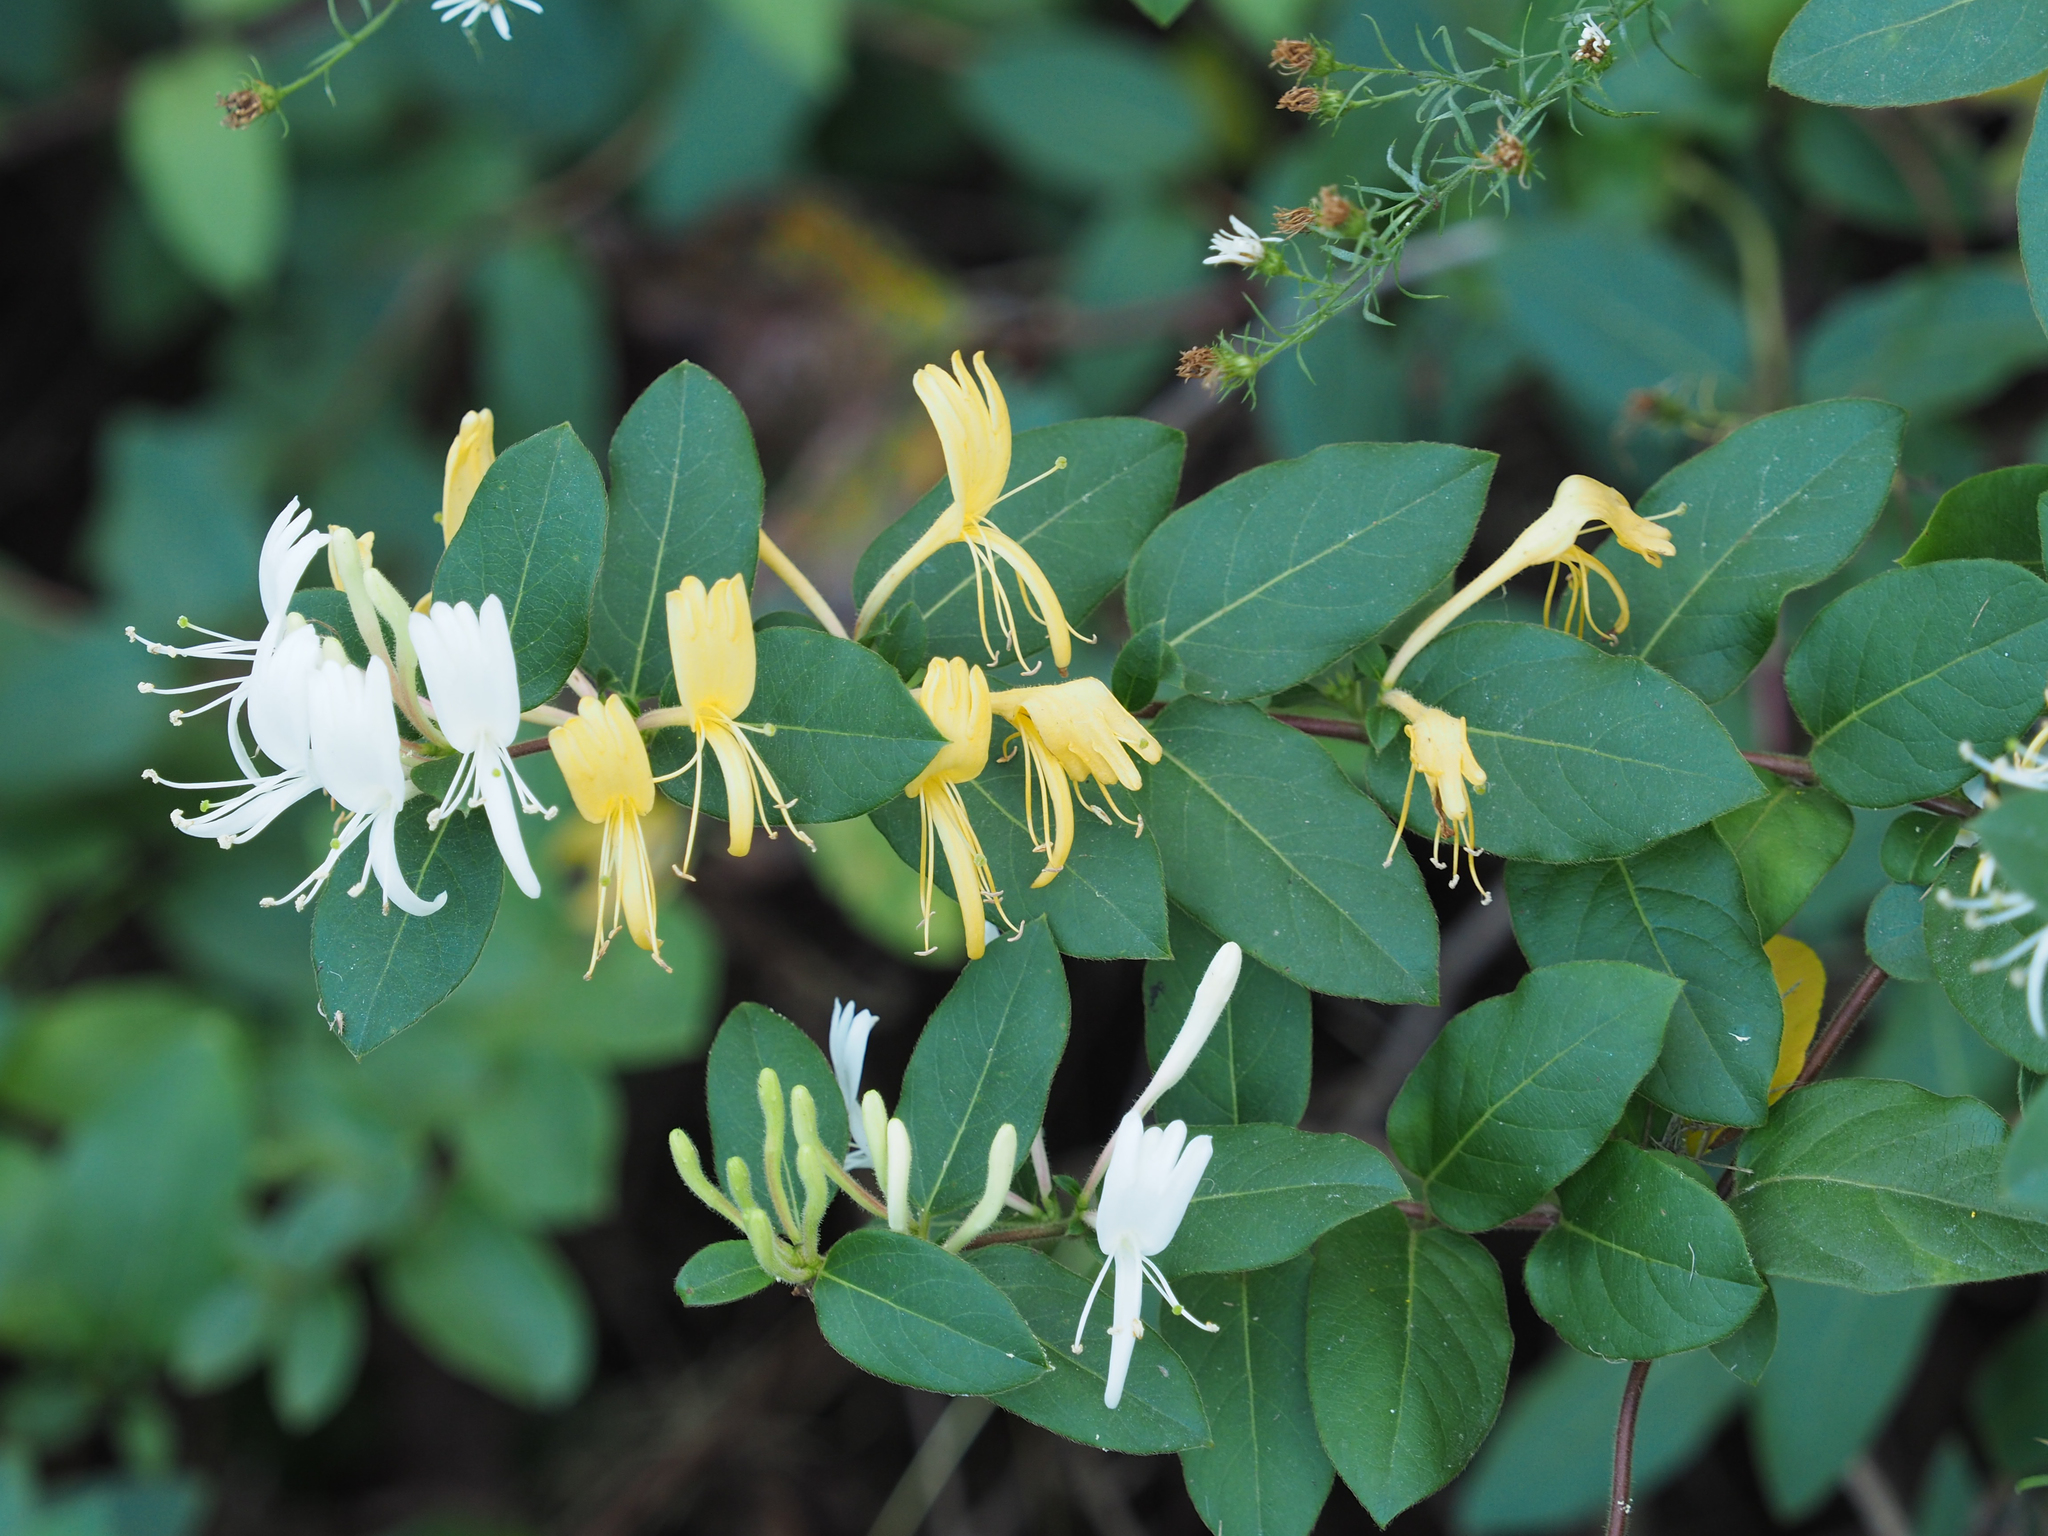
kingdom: Plantae
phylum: Tracheophyta
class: Magnoliopsida
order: Dipsacales
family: Caprifoliaceae
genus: Lonicera
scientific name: Lonicera japonica
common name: Japanese honeysuckle
